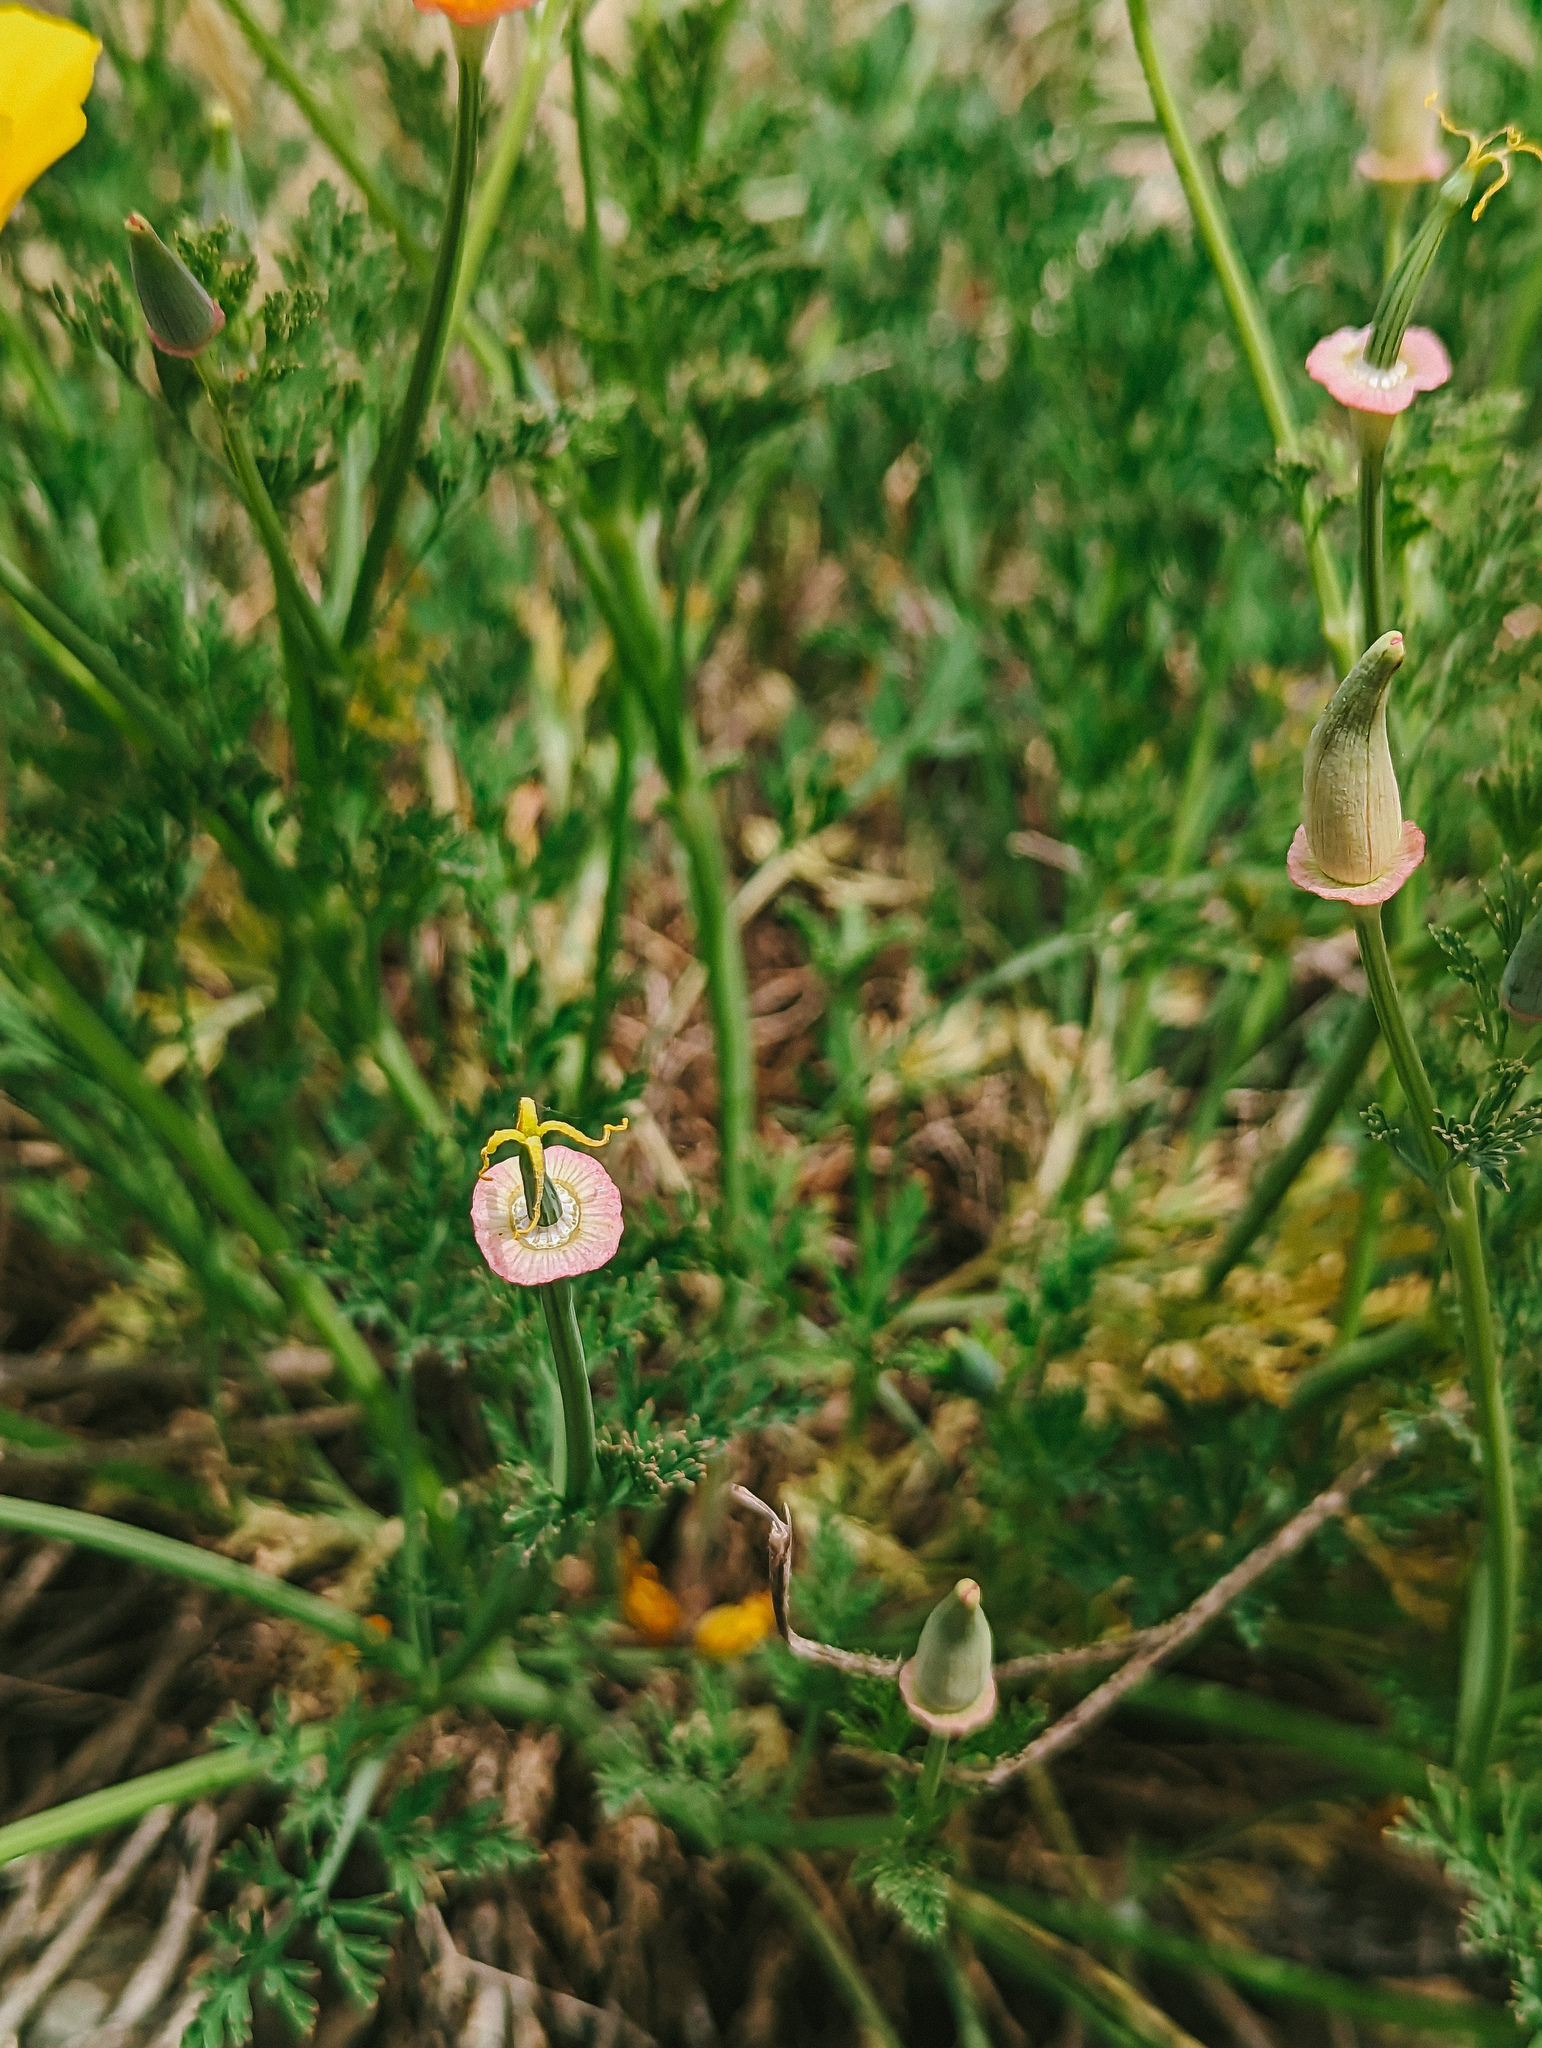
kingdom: Plantae
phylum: Tracheophyta
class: Magnoliopsida
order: Ranunculales
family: Papaveraceae
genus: Eschscholzia
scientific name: Eschscholzia californica
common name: California poppy
